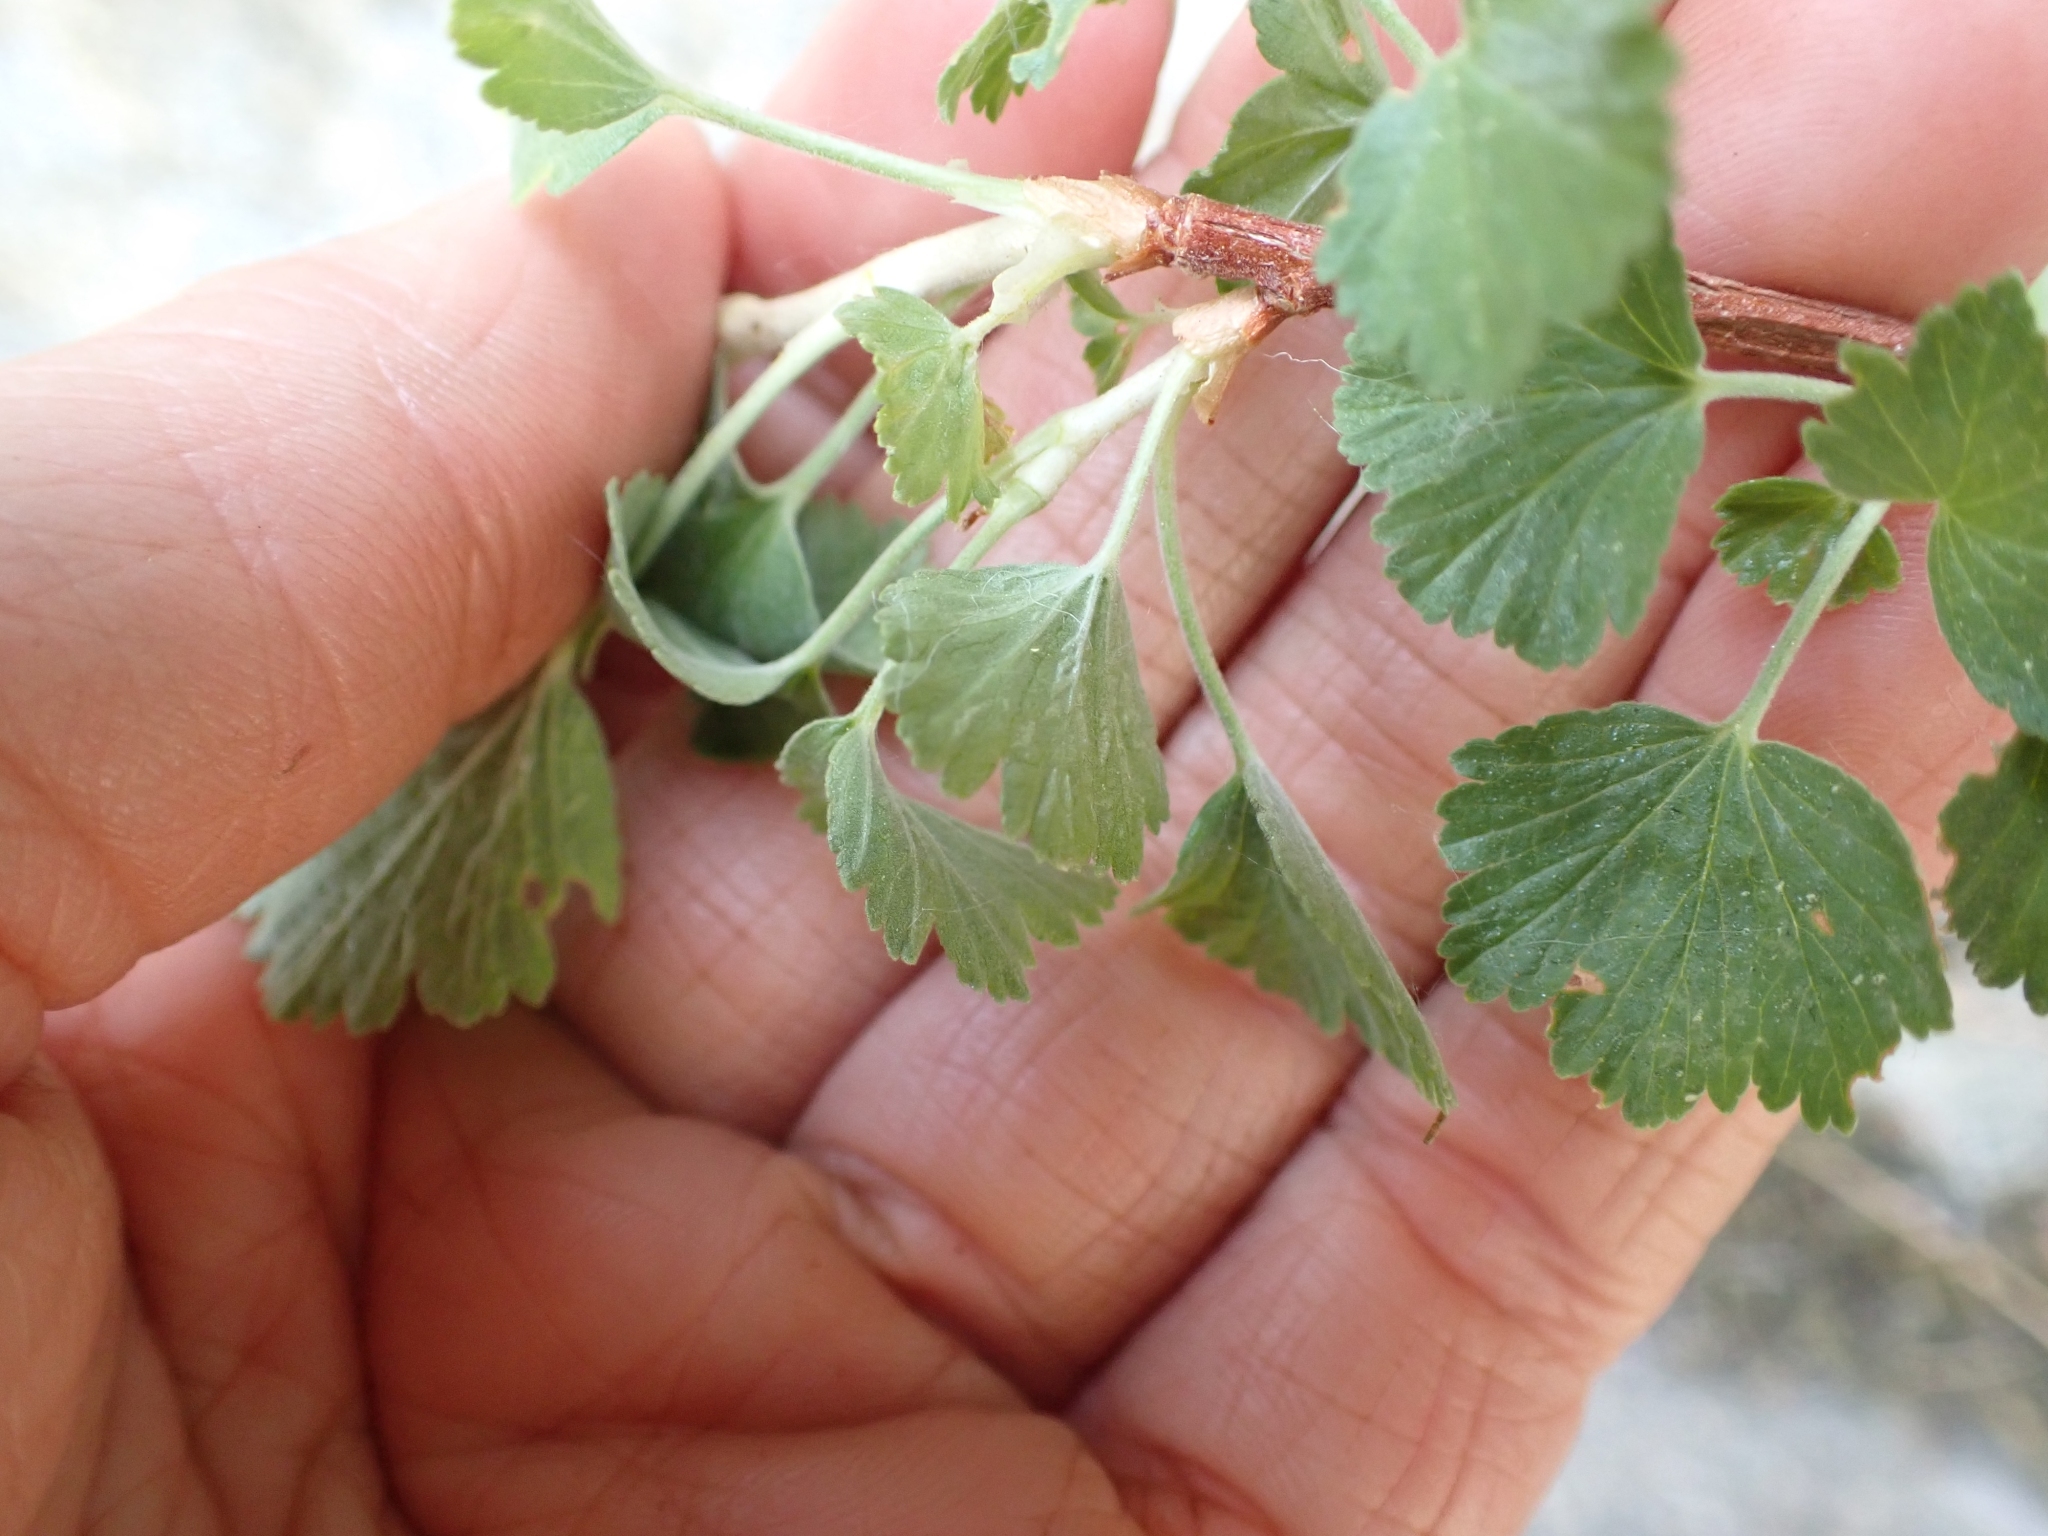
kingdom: Plantae
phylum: Tracheophyta
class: Magnoliopsida
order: Saxifragales
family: Grossulariaceae
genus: Ribes
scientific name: Ribes cereum
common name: Wax currant
